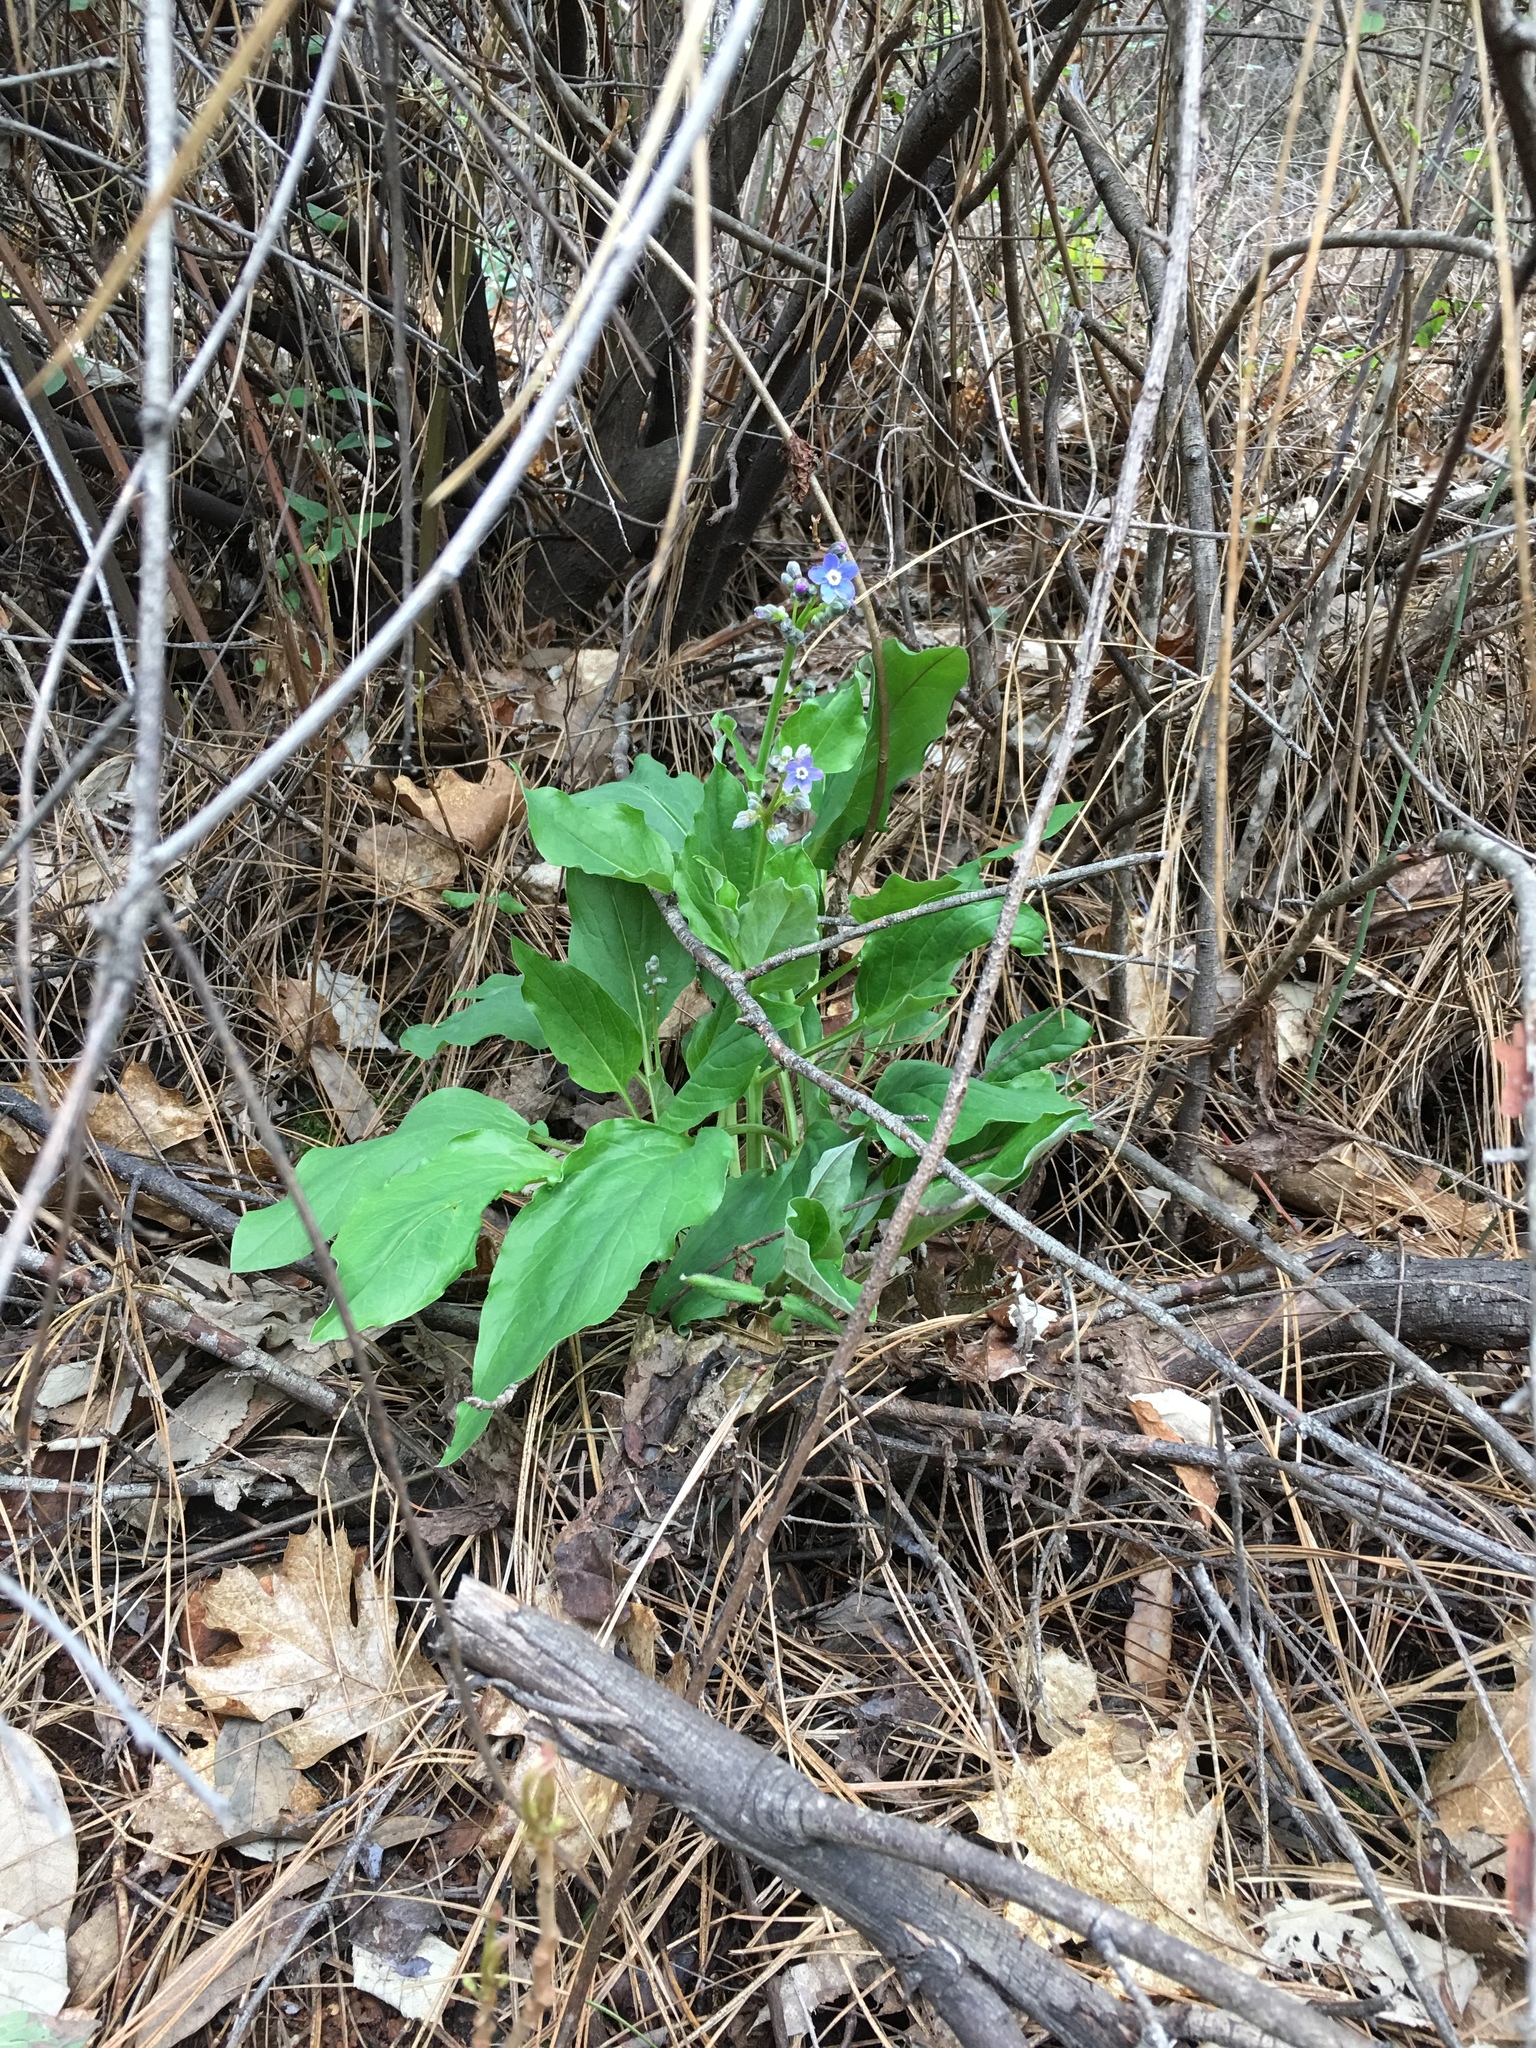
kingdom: Plantae
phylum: Tracheophyta
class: Magnoliopsida
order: Boraginales
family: Boraginaceae
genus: Adelinia
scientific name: Adelinia grande
